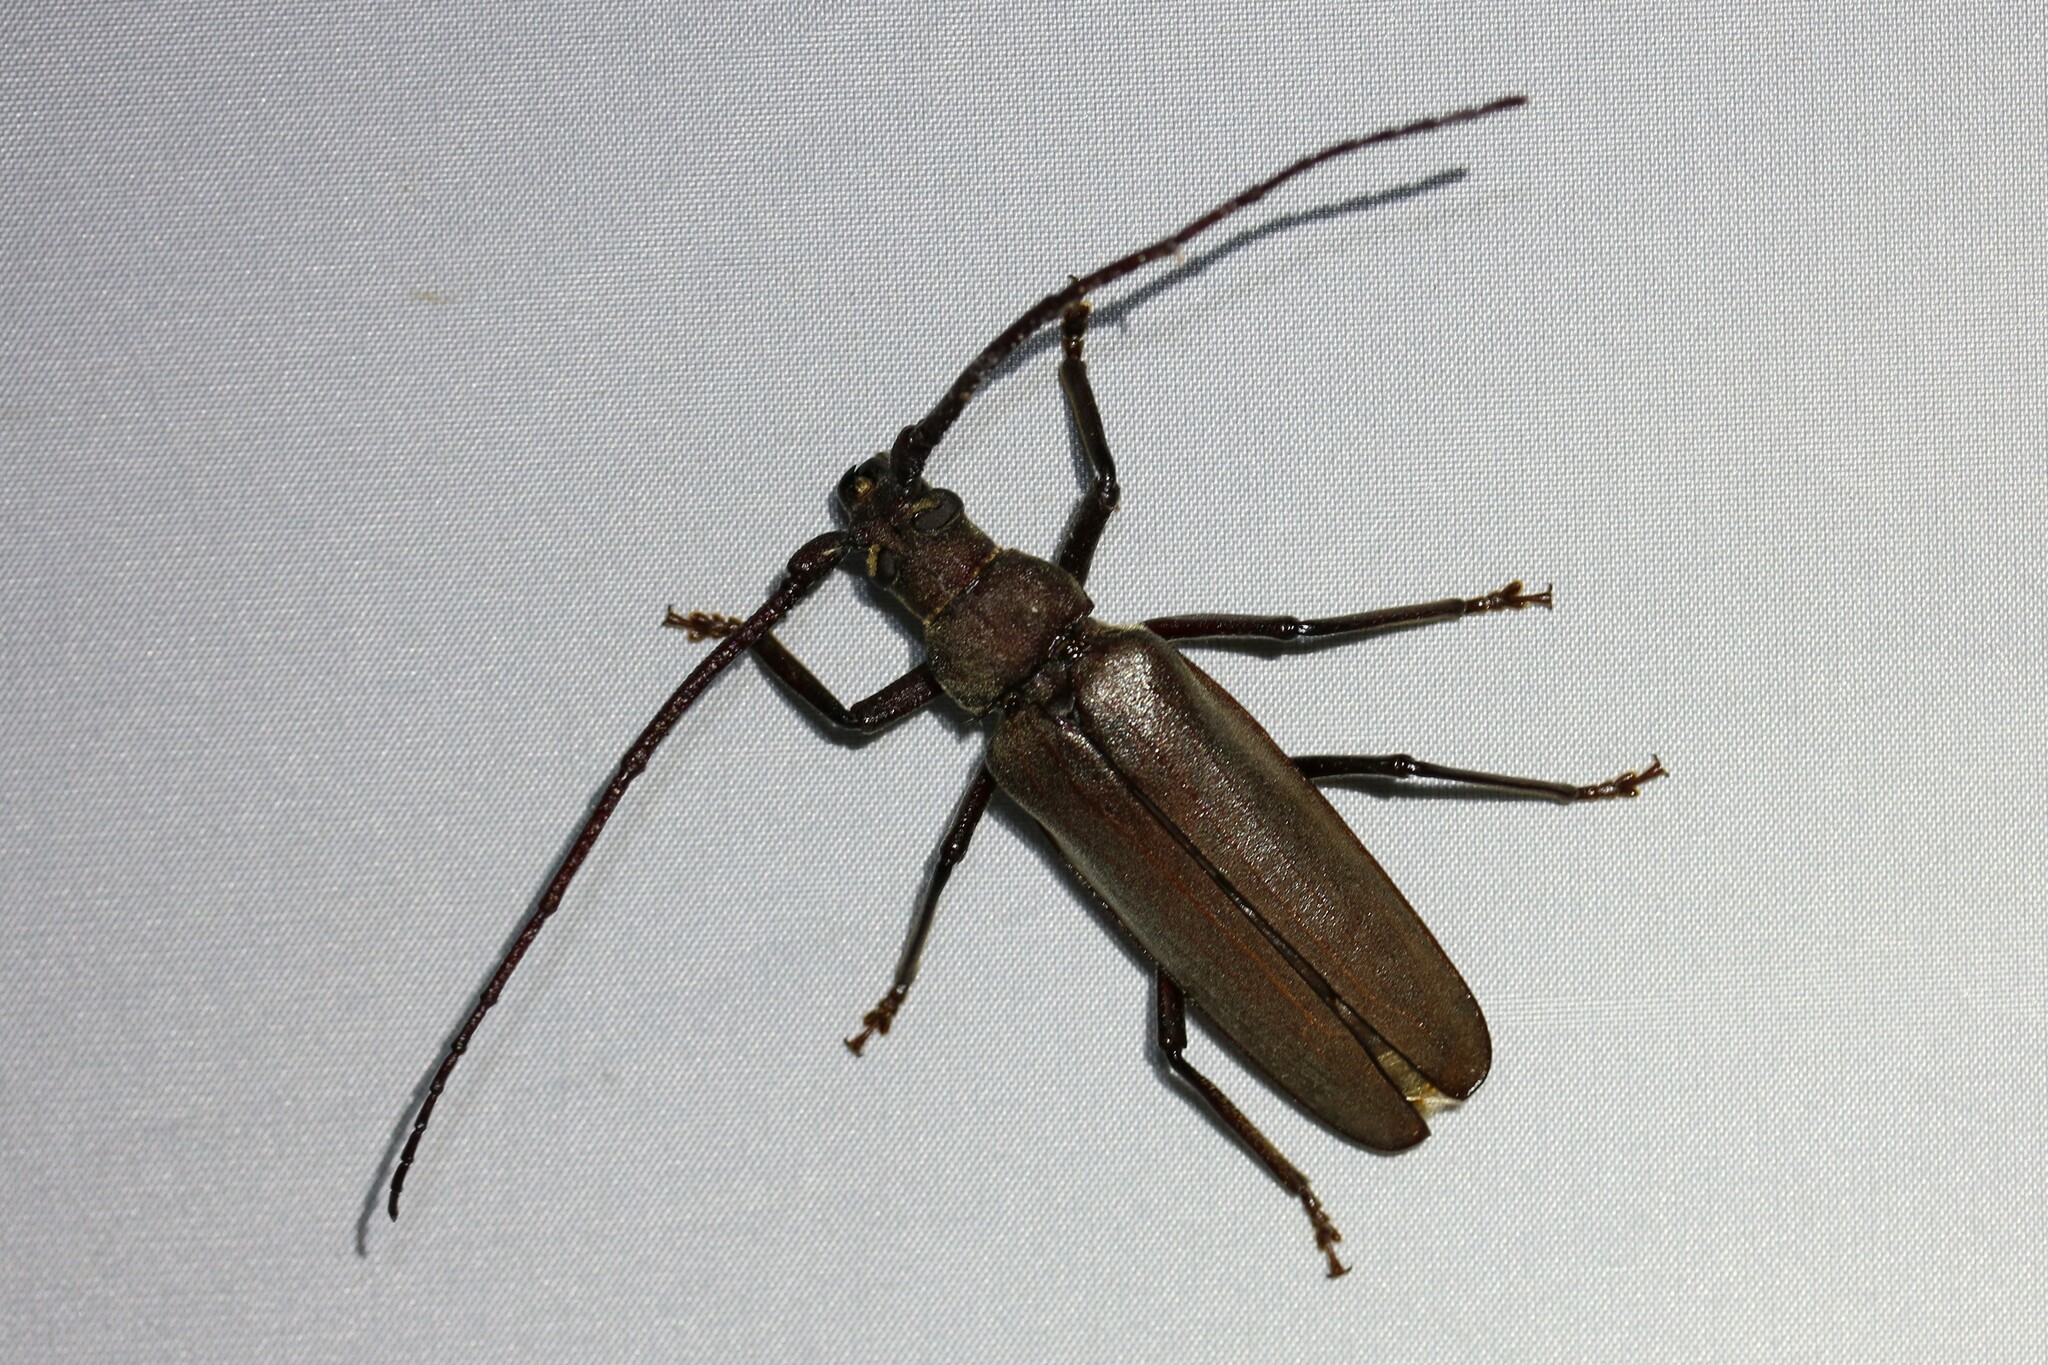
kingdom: Animalia
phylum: Arthropoda
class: Insecta
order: Coleoptera
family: Cerambycidae
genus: Aegosoma
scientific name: Aegosoma scabricorne
